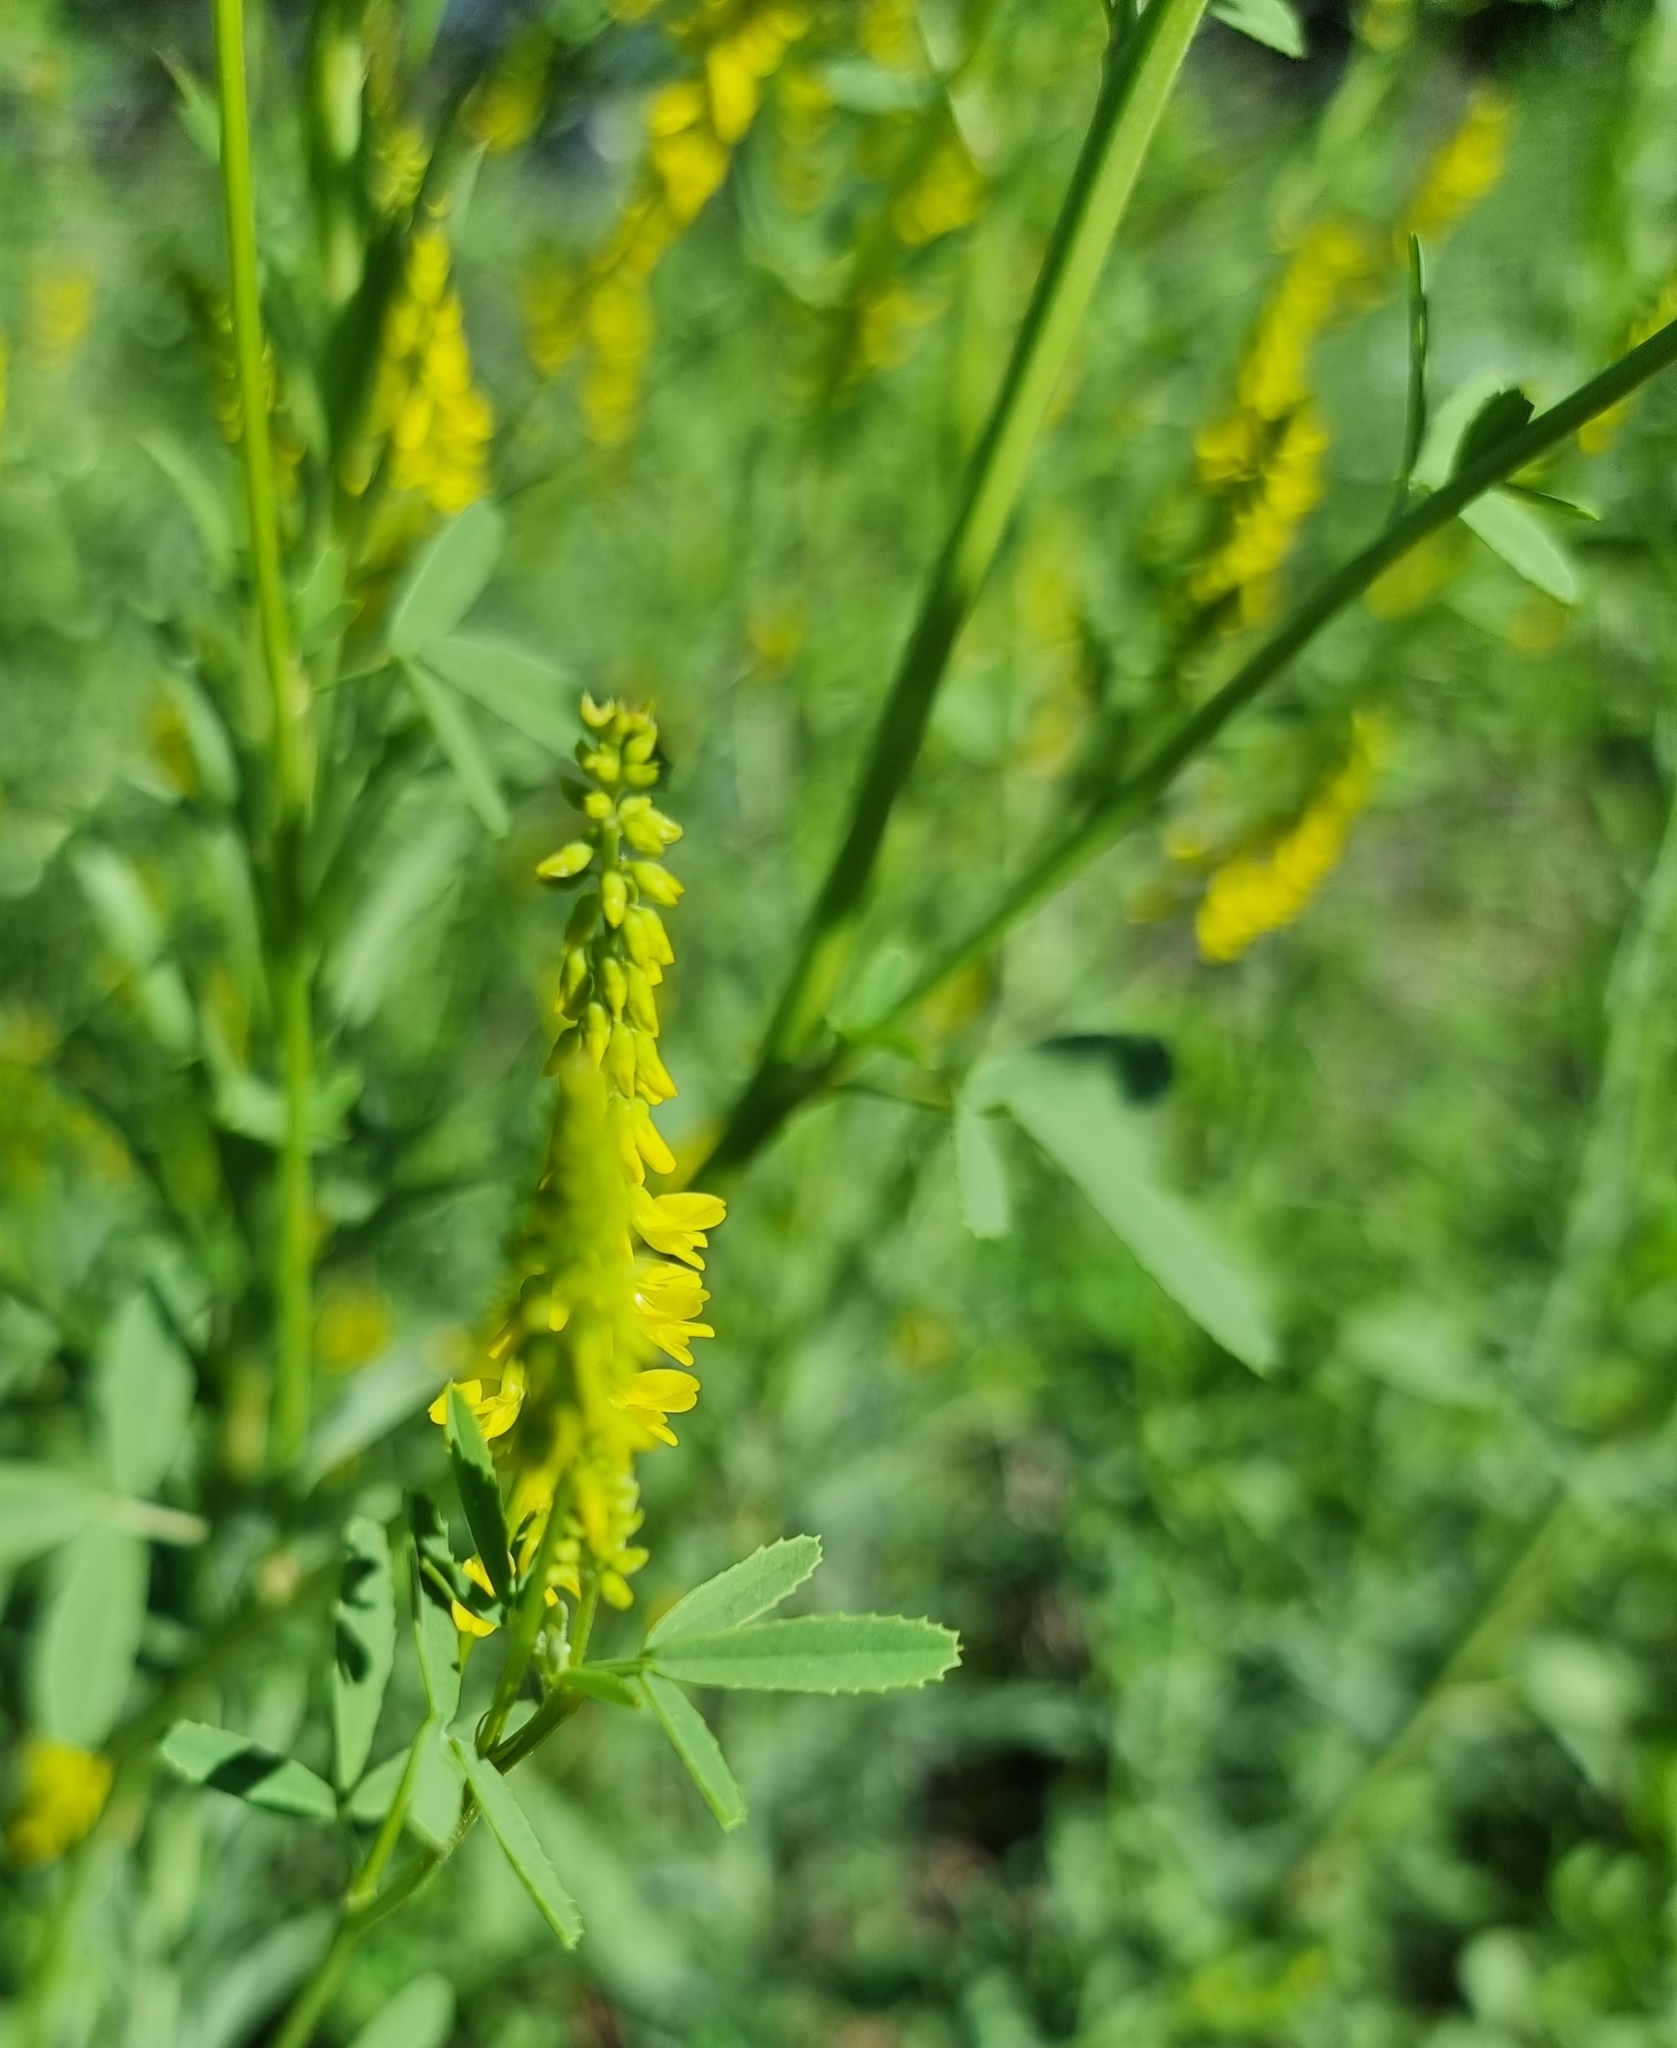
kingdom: Plantae
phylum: Tracheophyta
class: Magnoliopsida
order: Fabales
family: Fabaceae
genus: Melilotus
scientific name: Melilotus officinalis
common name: Sweetclover
